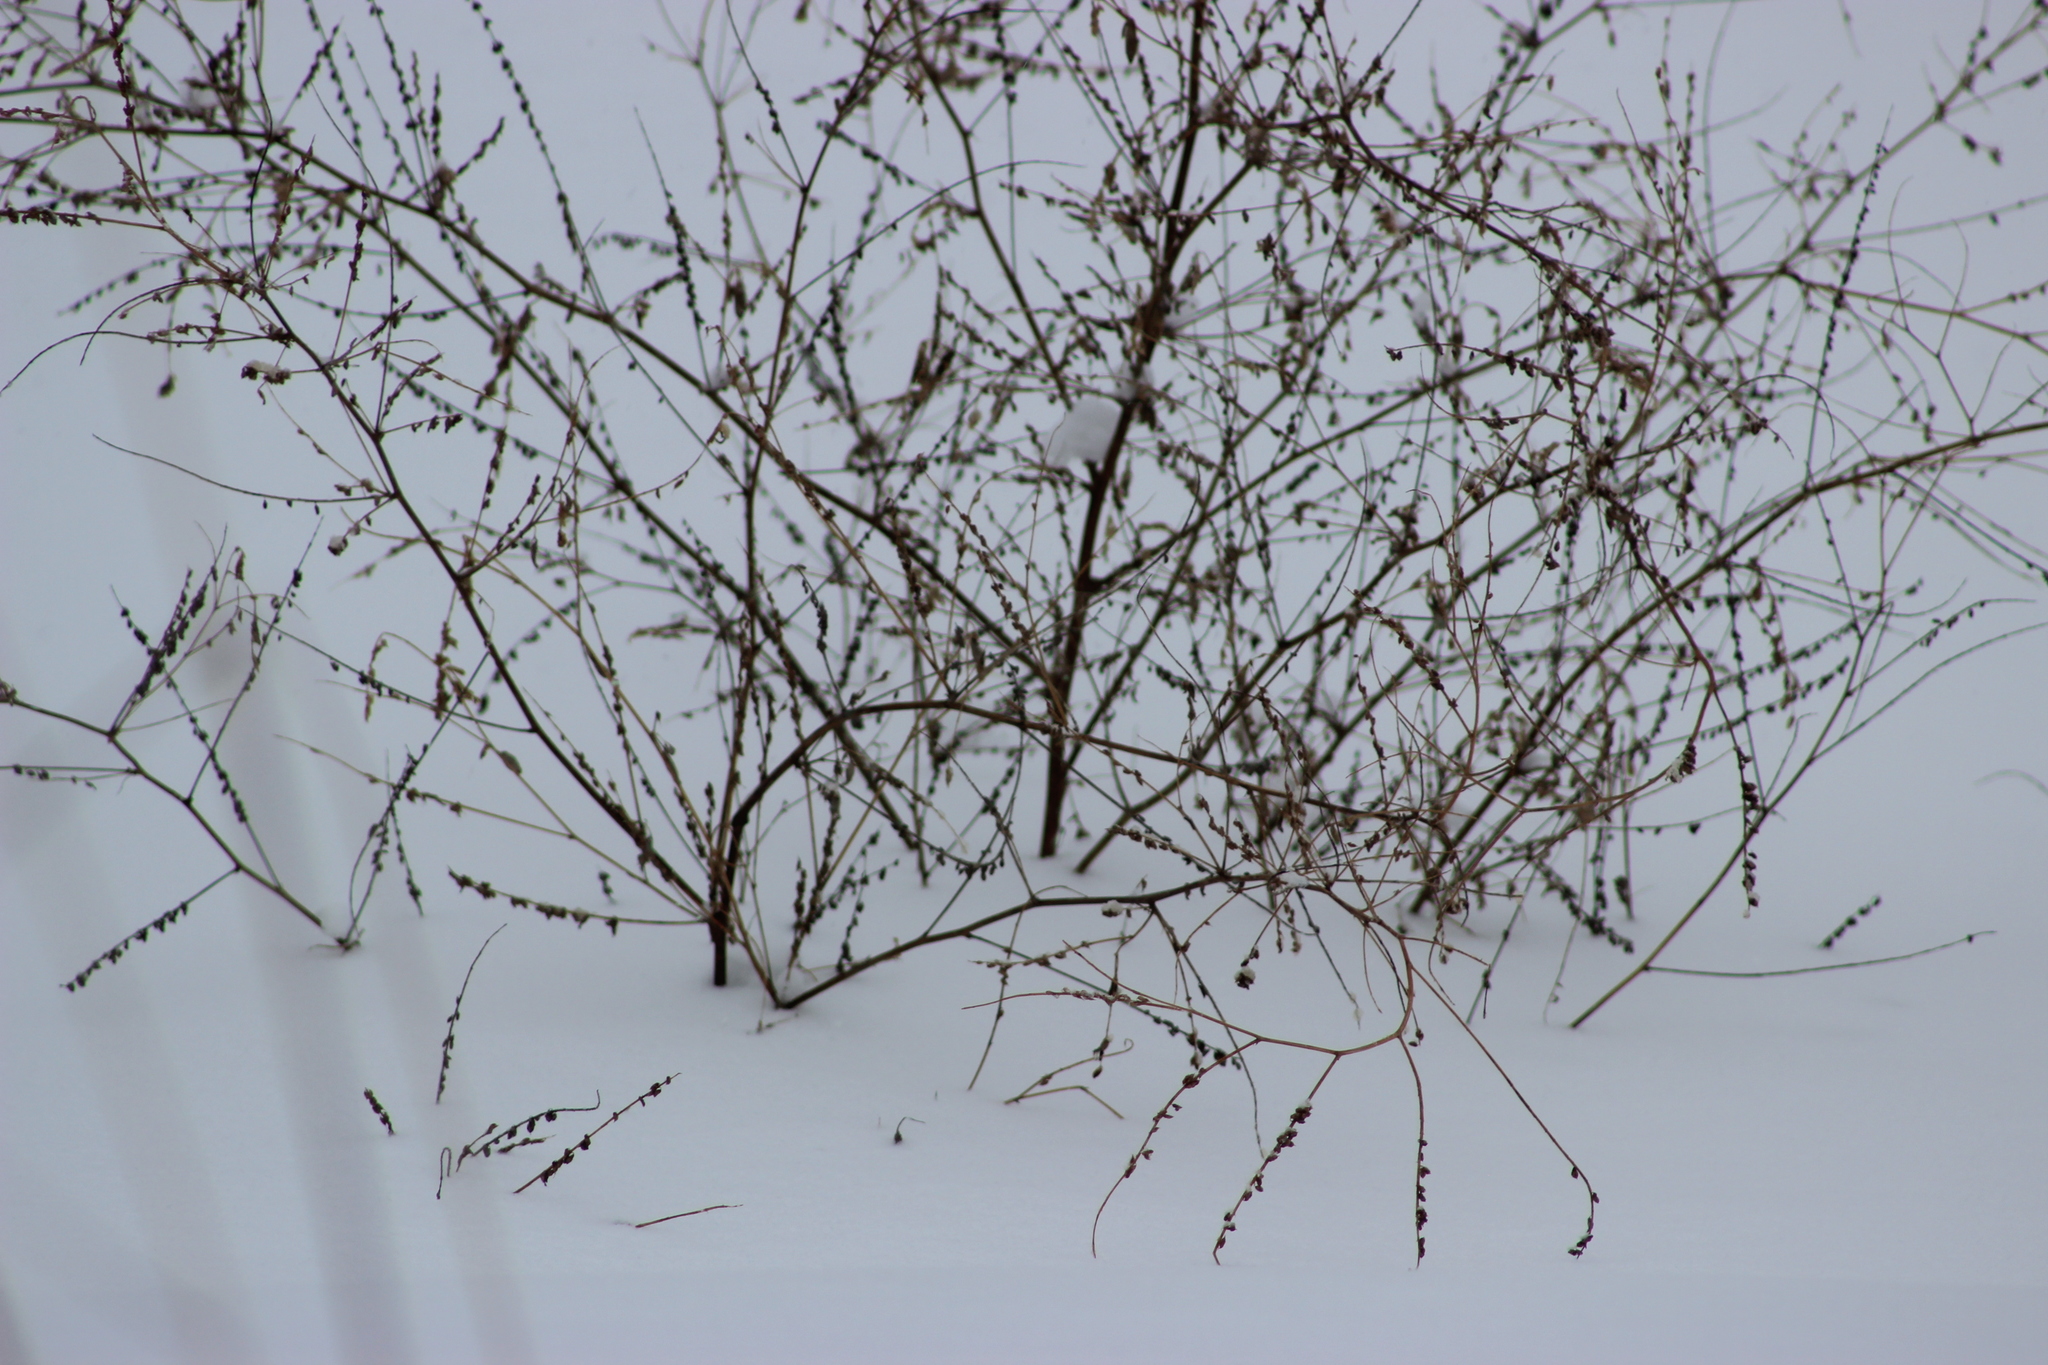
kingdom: Plantae
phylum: Tracheophyta
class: Magnoliopsida
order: Fabales
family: Fabaceae
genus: Melilotus
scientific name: Melilotus albus
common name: White melilot
